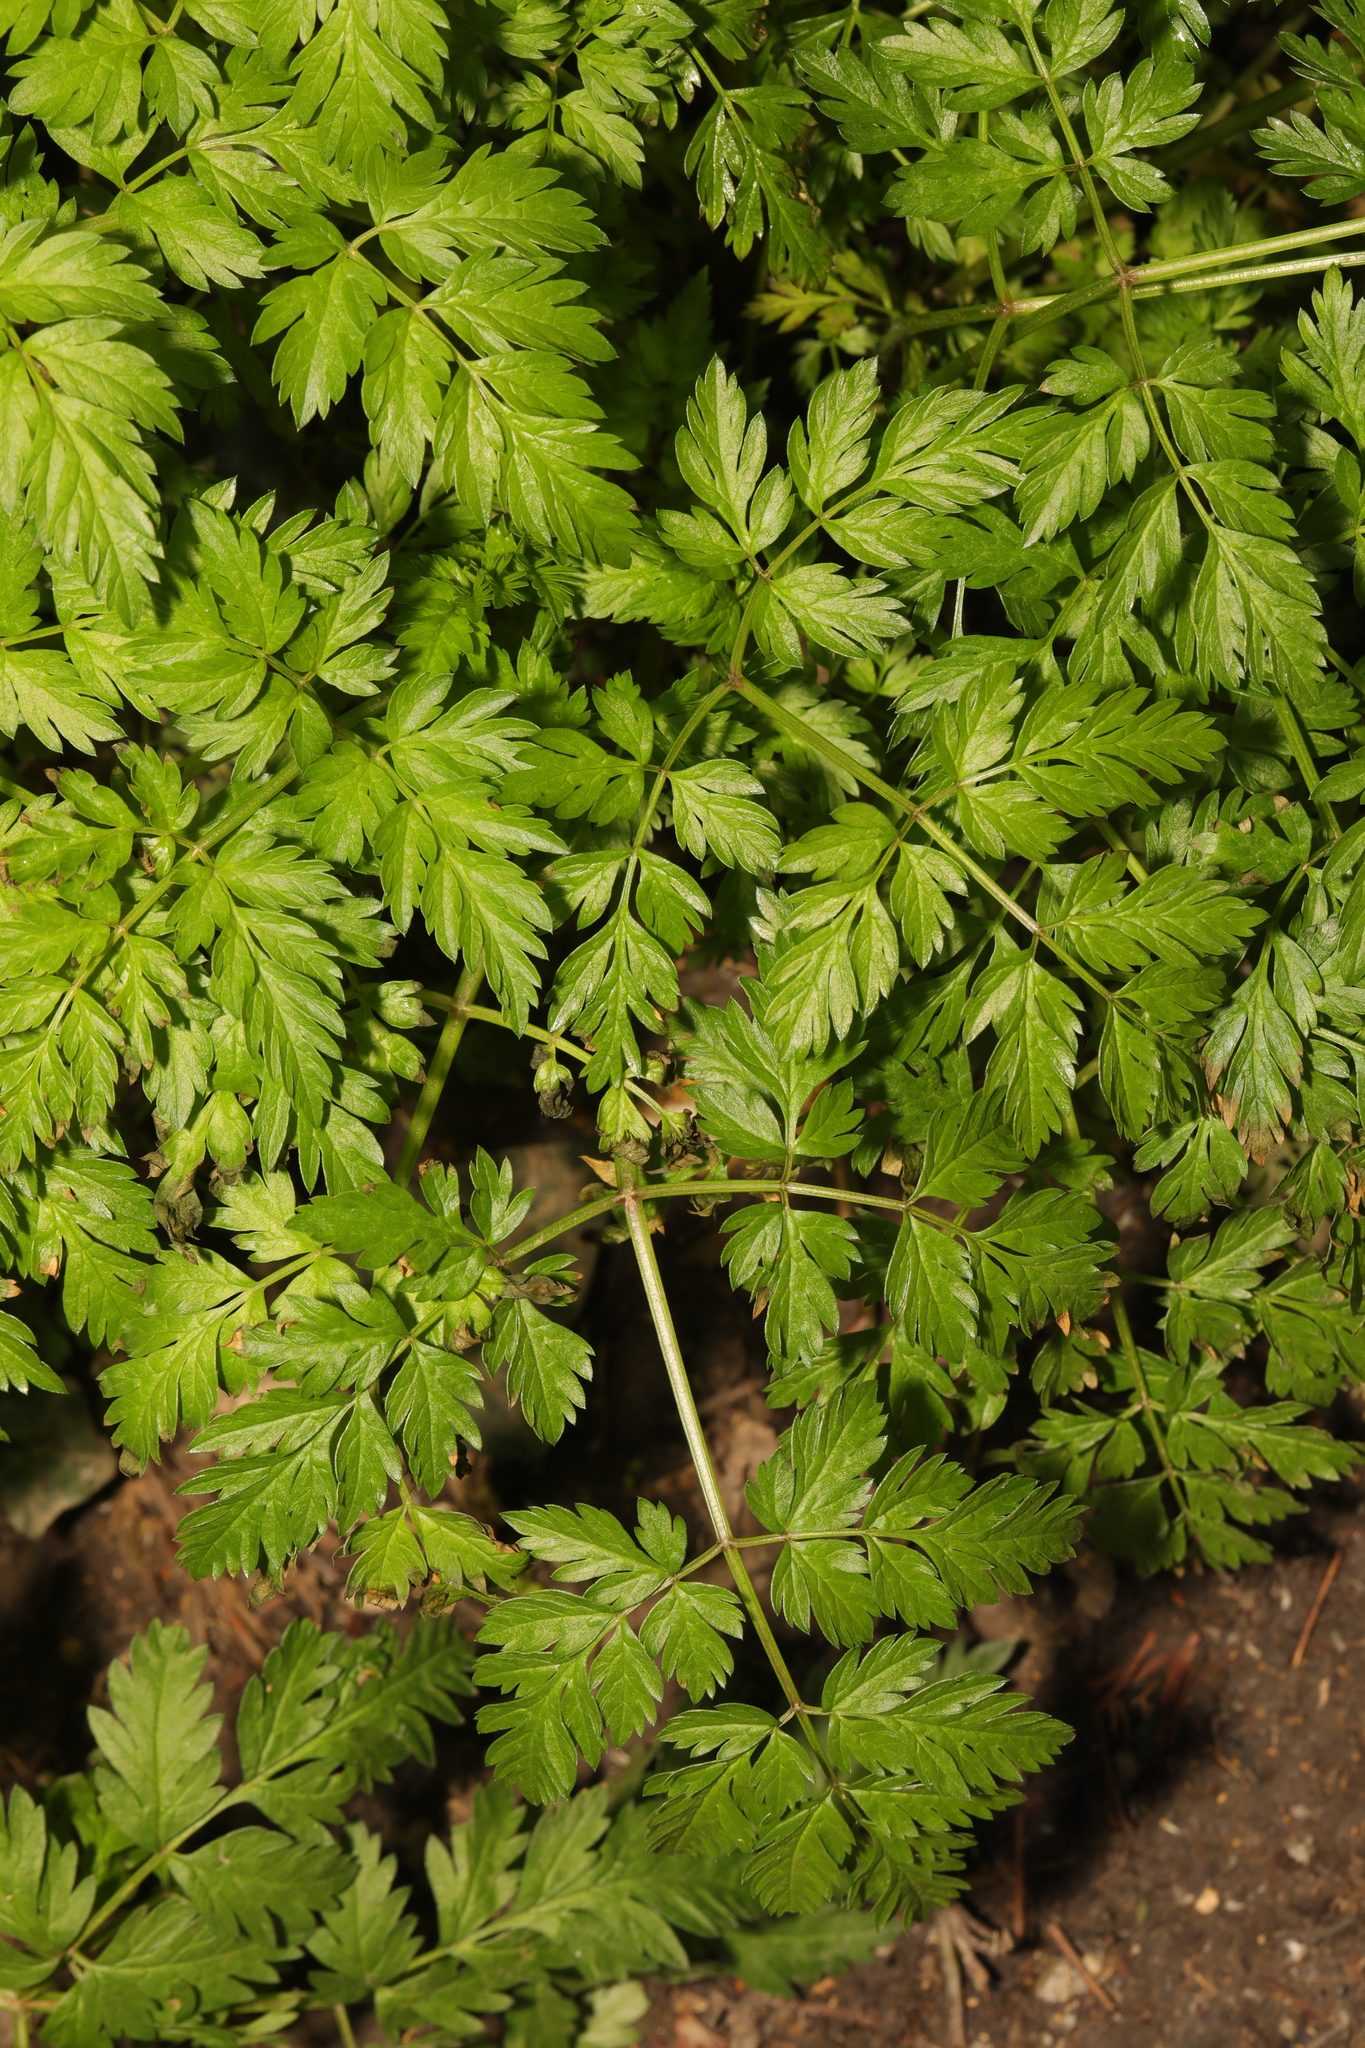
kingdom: Plantae
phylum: Tracheophyta
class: Magnoliopsida
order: Apiales
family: Apiaceae
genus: Anthriscus
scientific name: Anthriscus sylvestris
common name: Cow parsley
